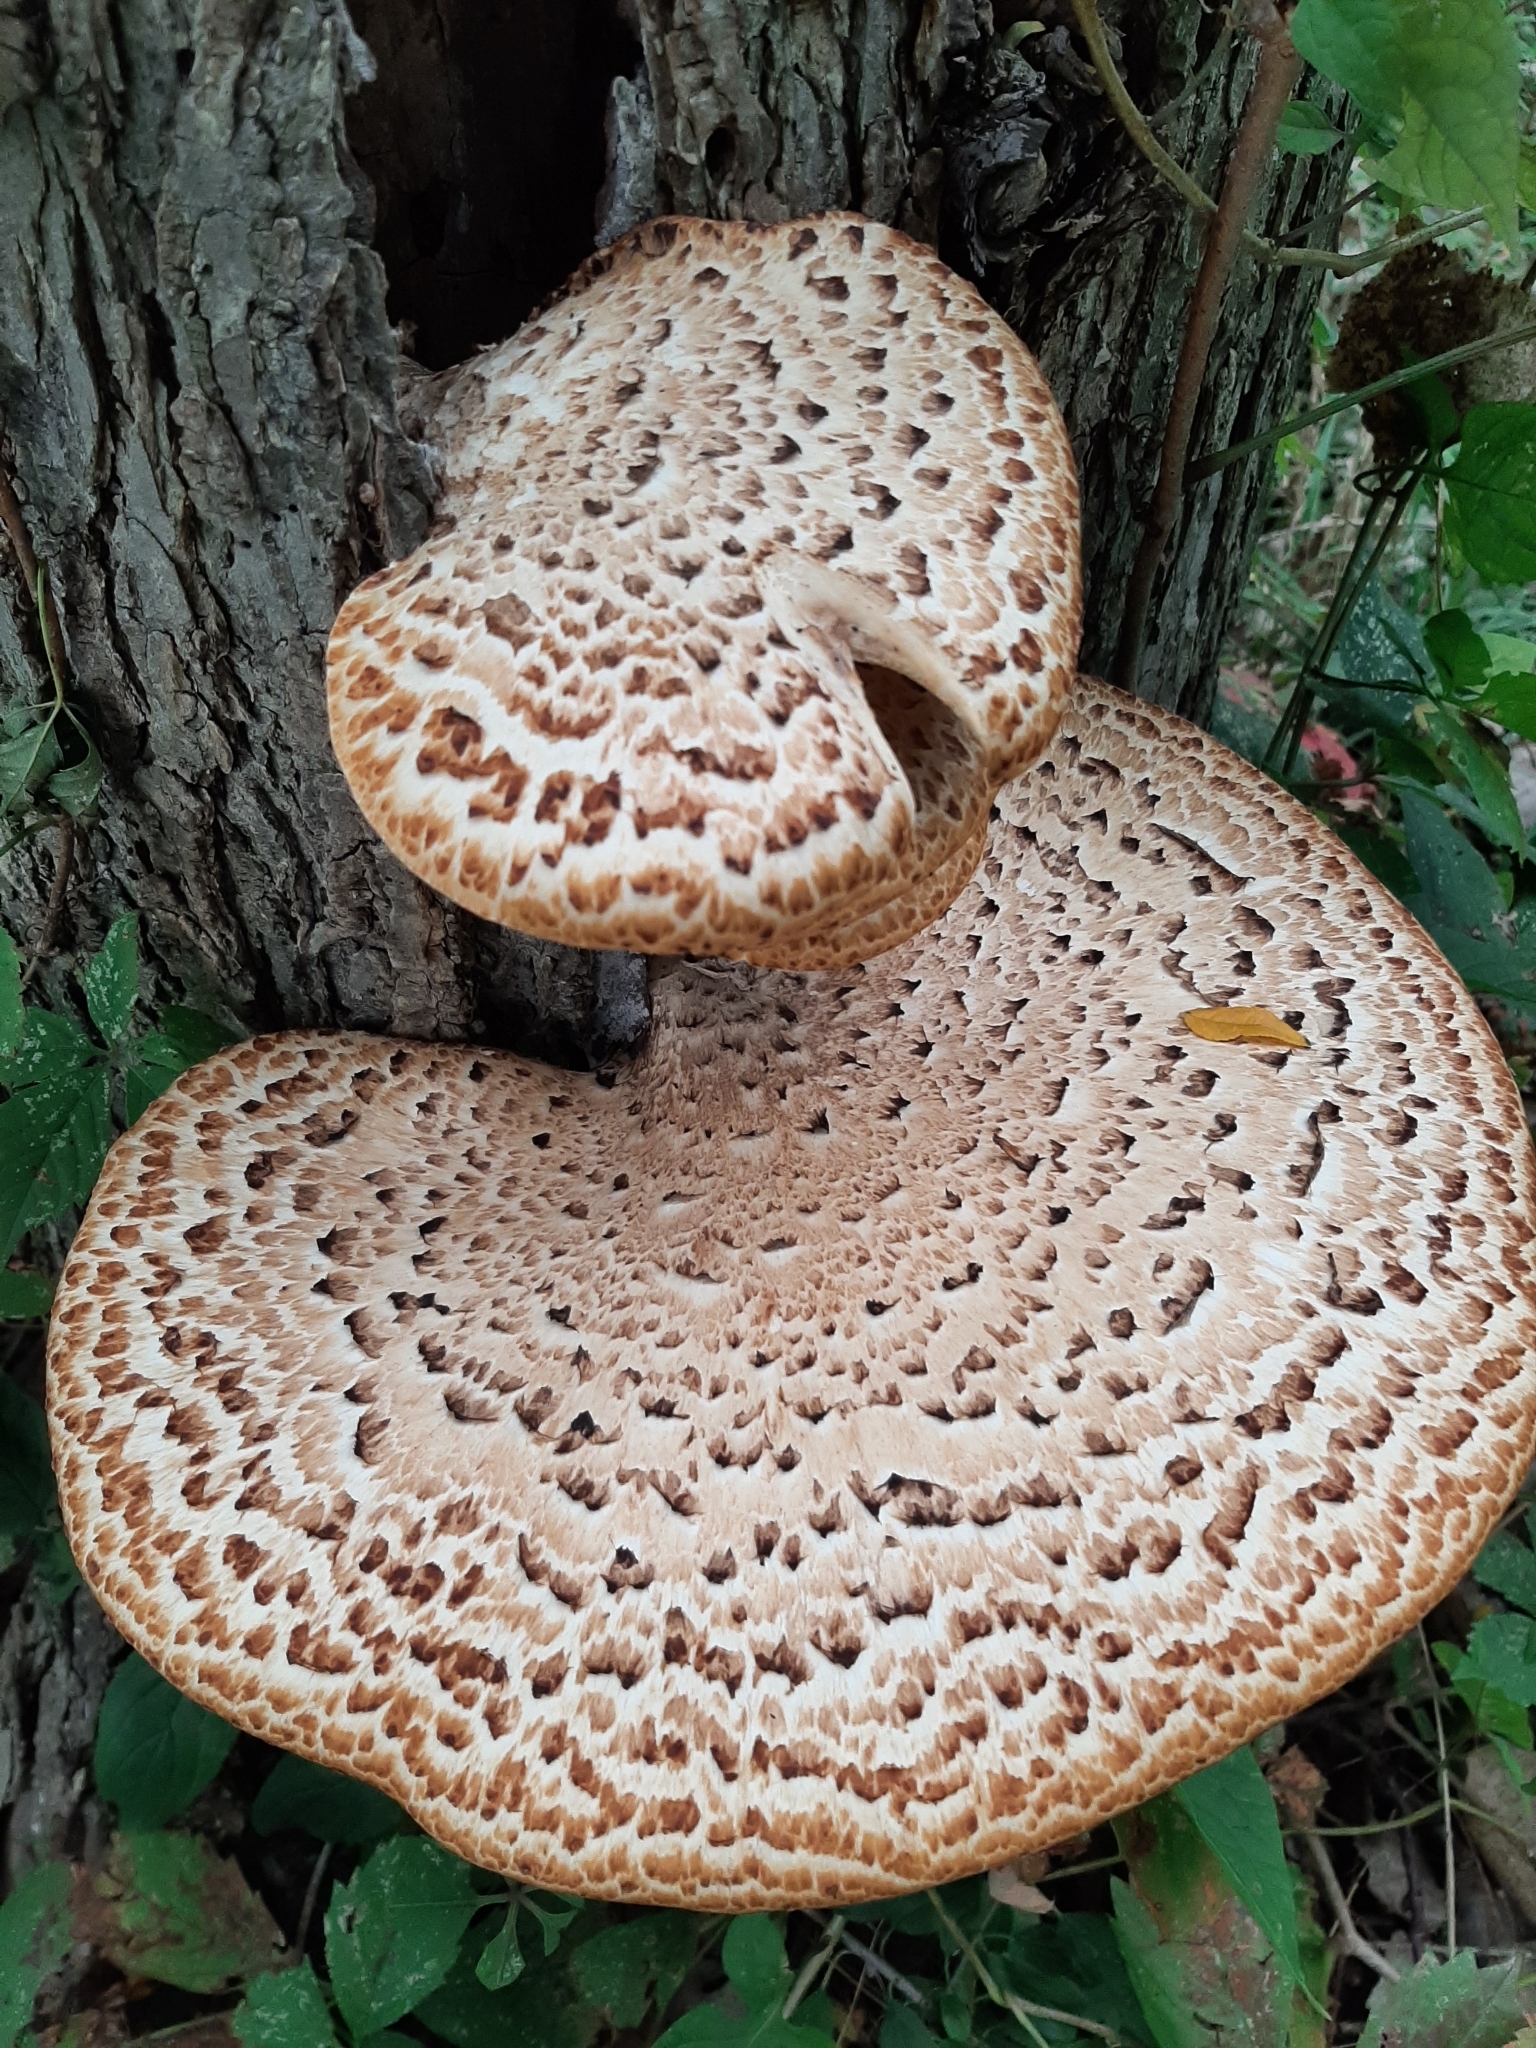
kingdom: Fungi
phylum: Basidiomycota
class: Agaricomycetes
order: Polyporales
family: Polyporaceae
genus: Cerioporus
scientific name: Cerioporus squamosus
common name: Dryad's saddle
